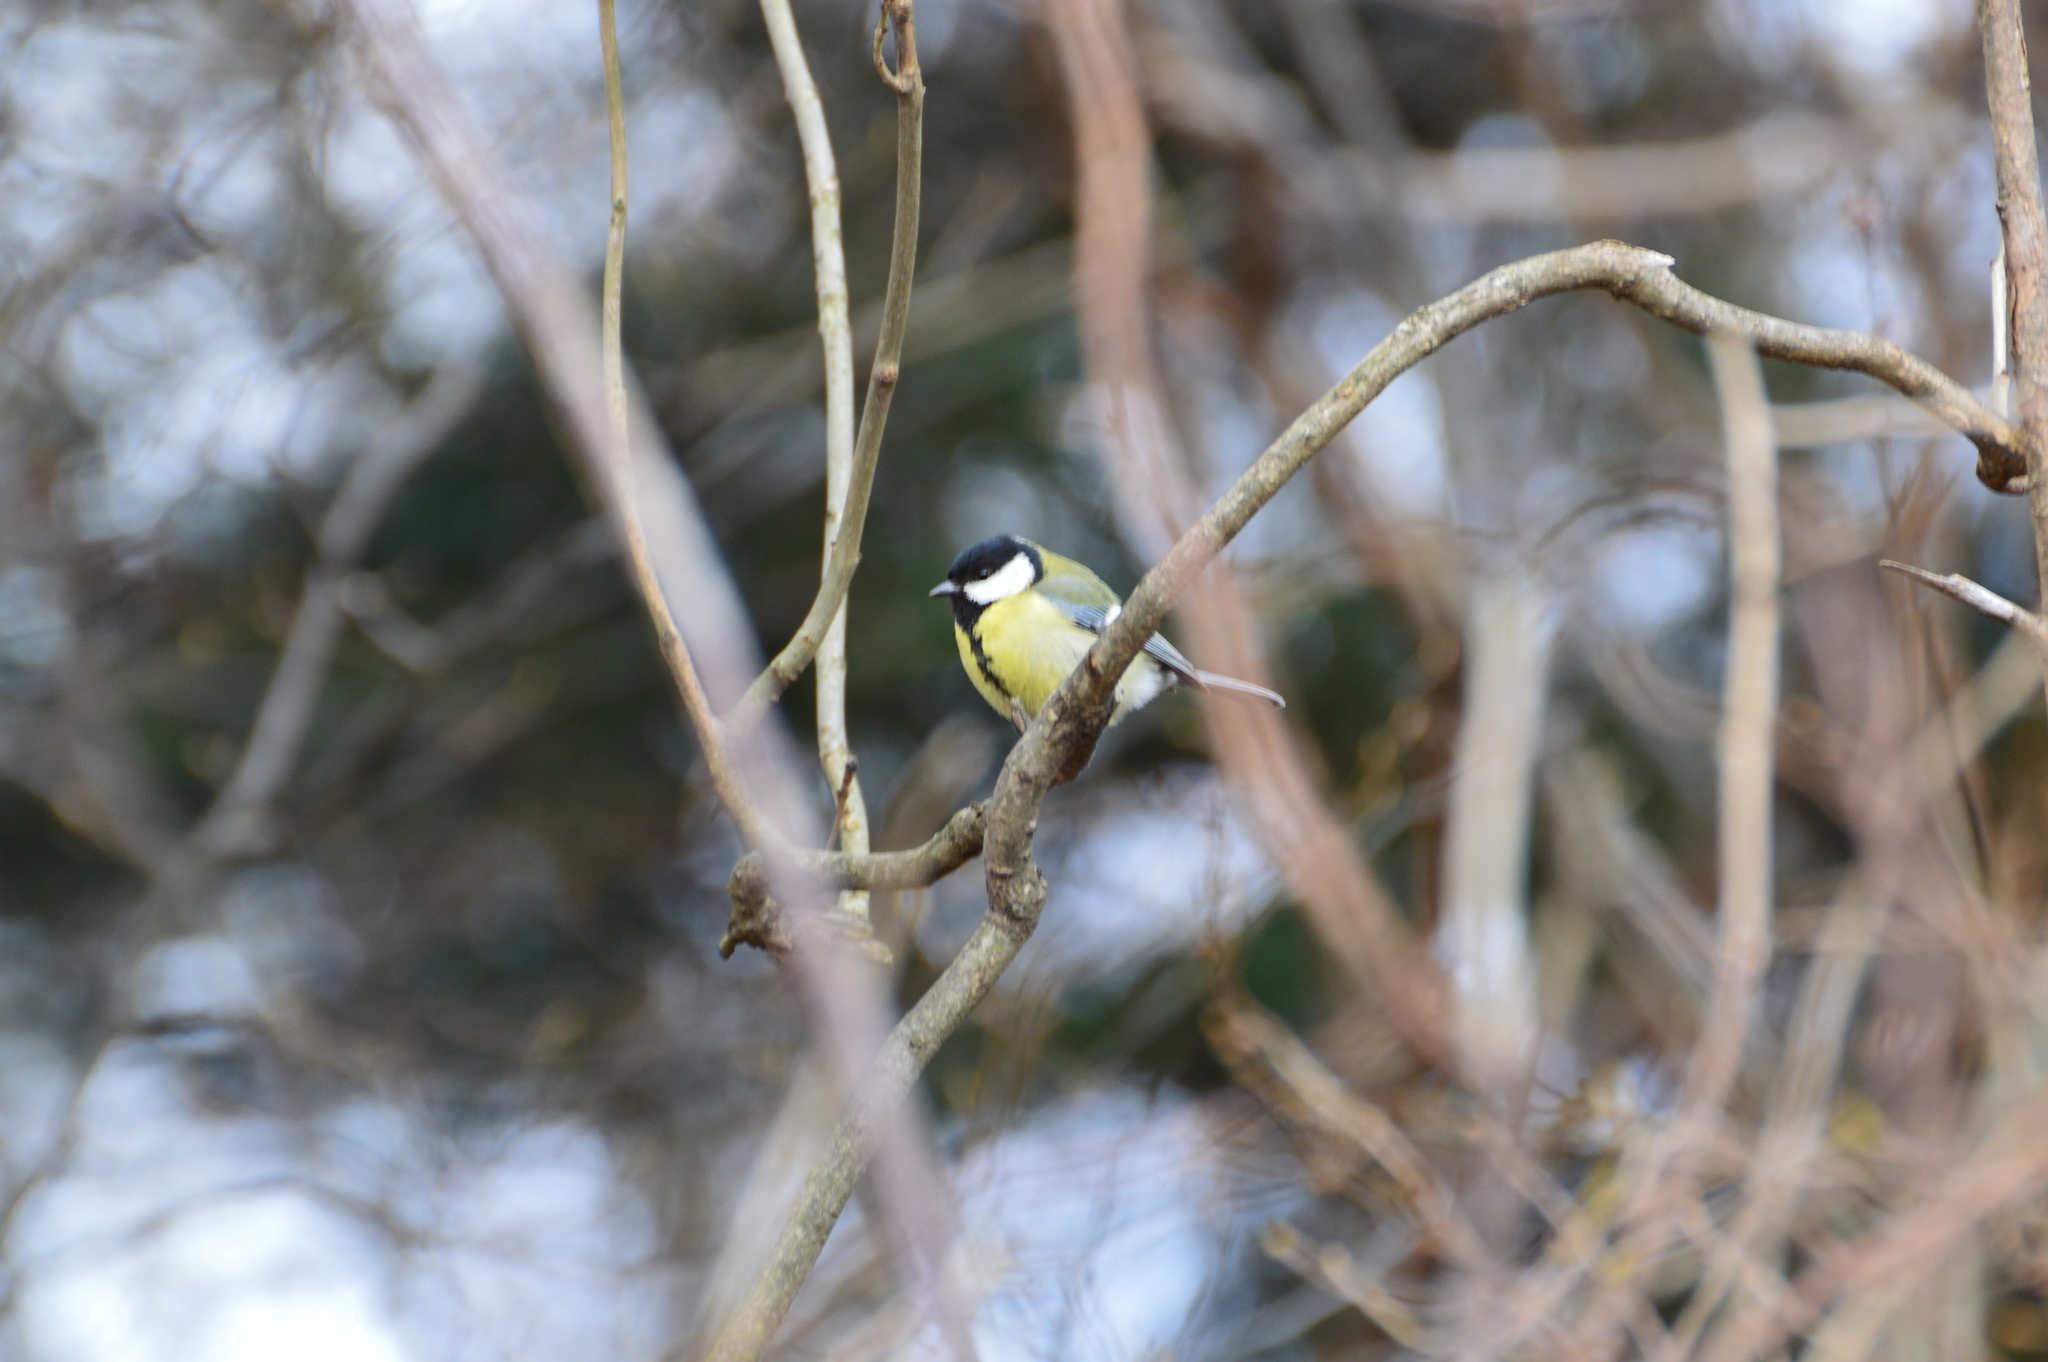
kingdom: Animalia
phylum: Chordata
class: Aves
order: Passeriformes
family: Paridae
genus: Parus
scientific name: Parus major
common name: Great tit
